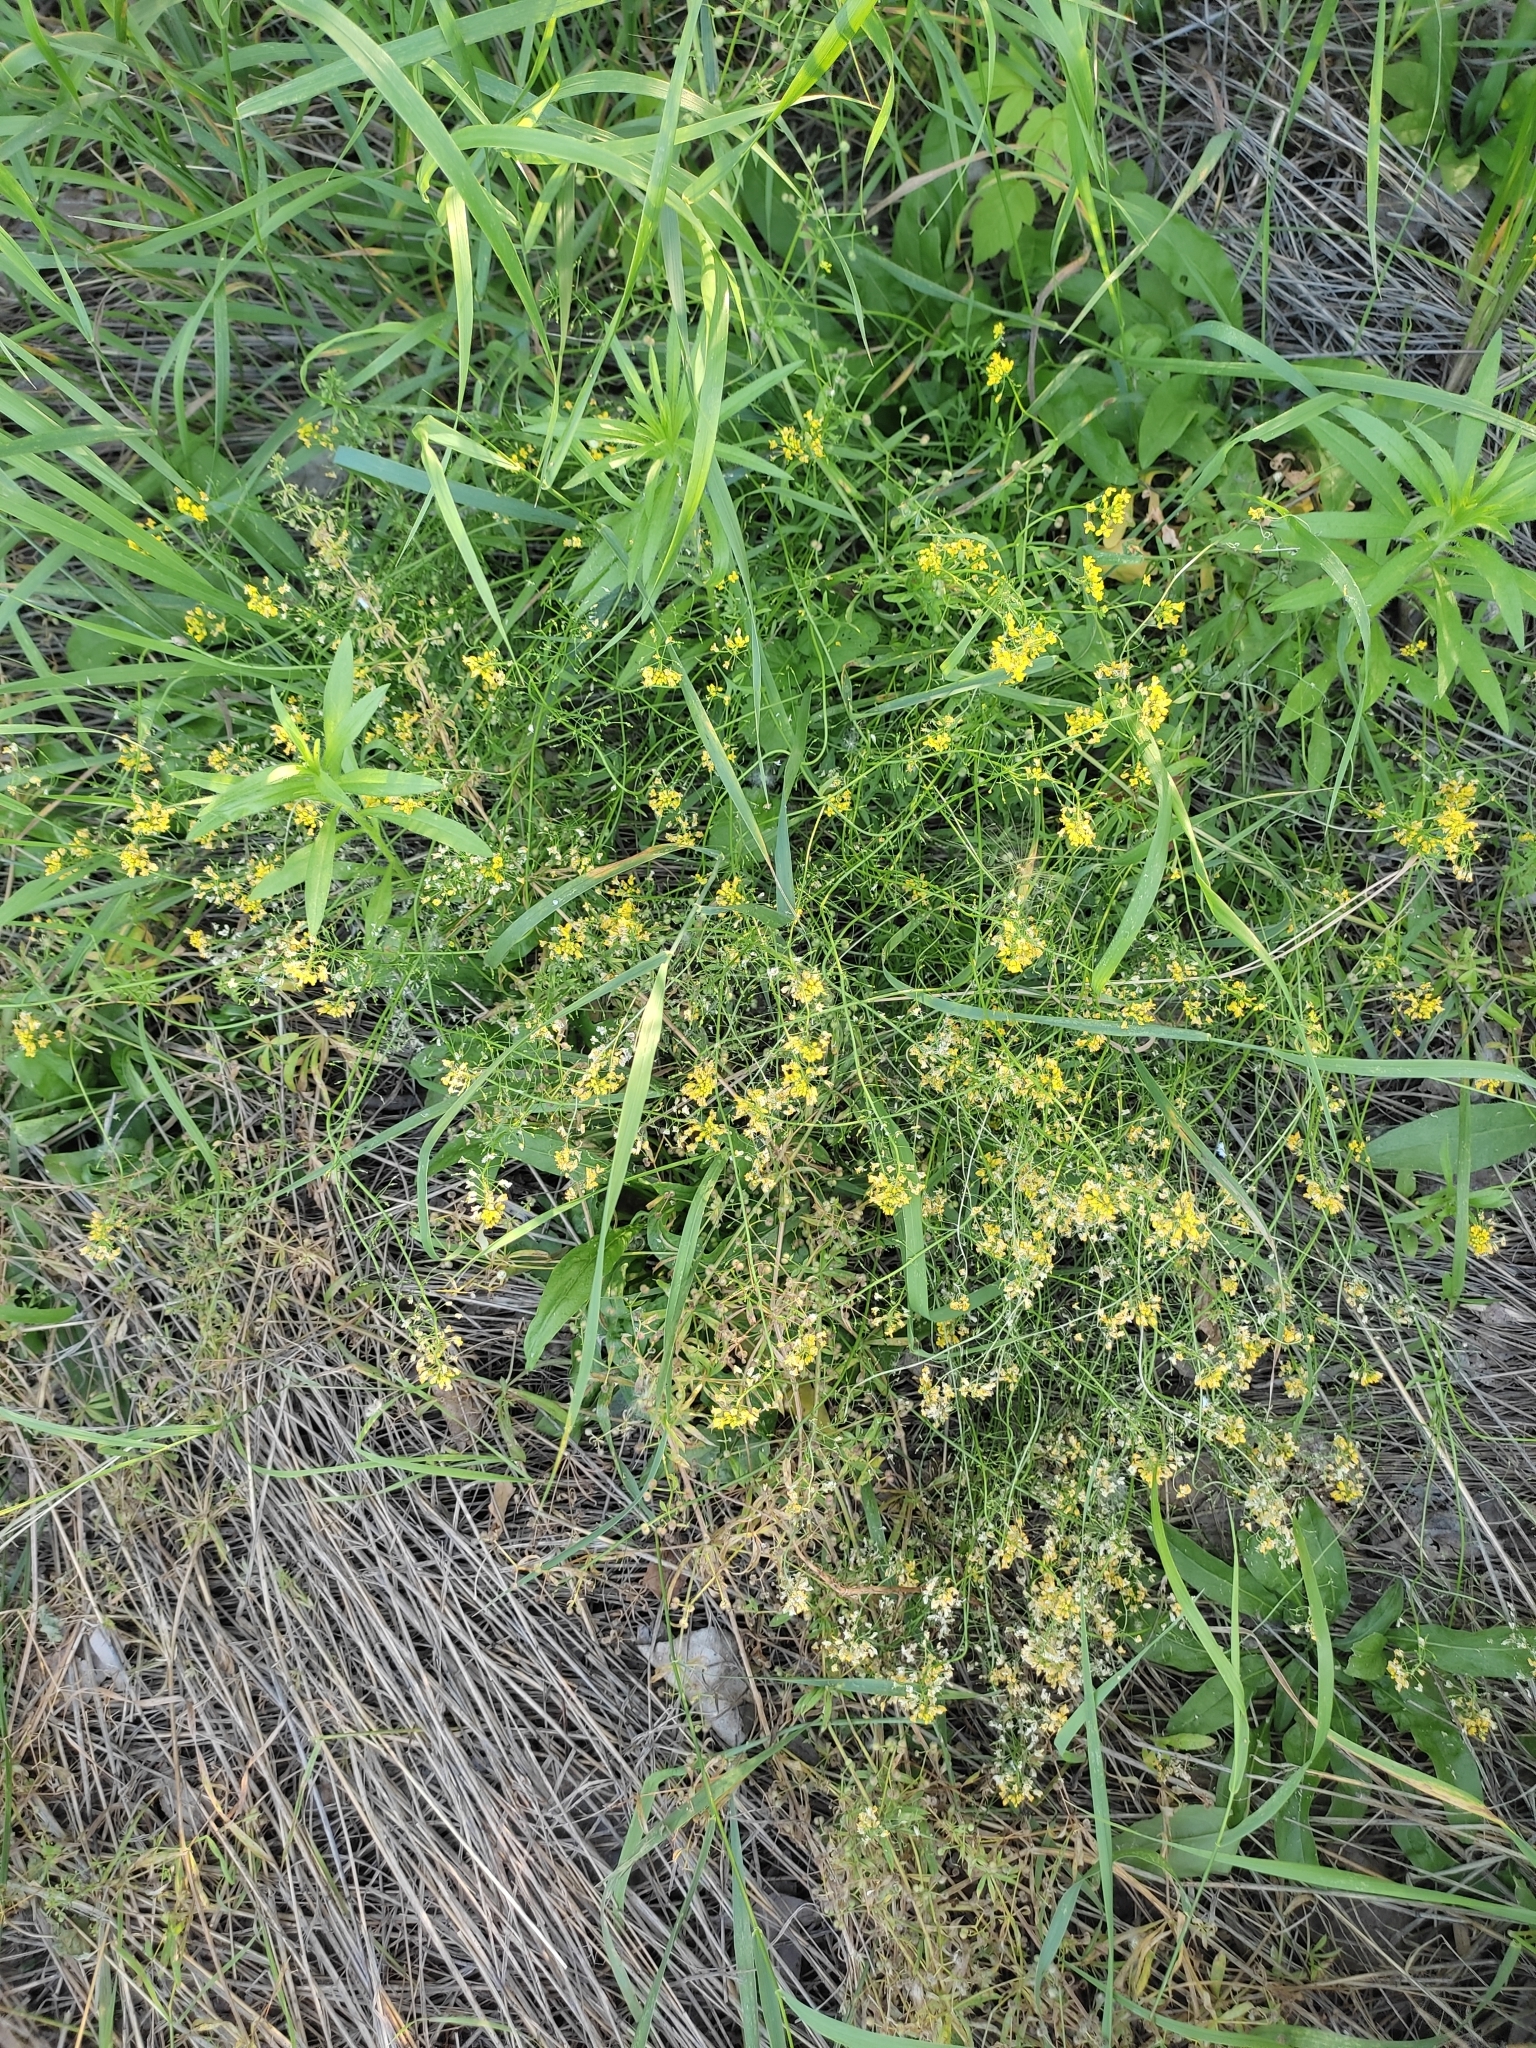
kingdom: Plantae
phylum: Tracheophyta
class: Magnoliopsida
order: Brassicales
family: Brassicaceae
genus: Rorippa
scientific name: Rorippa brachycarpa
